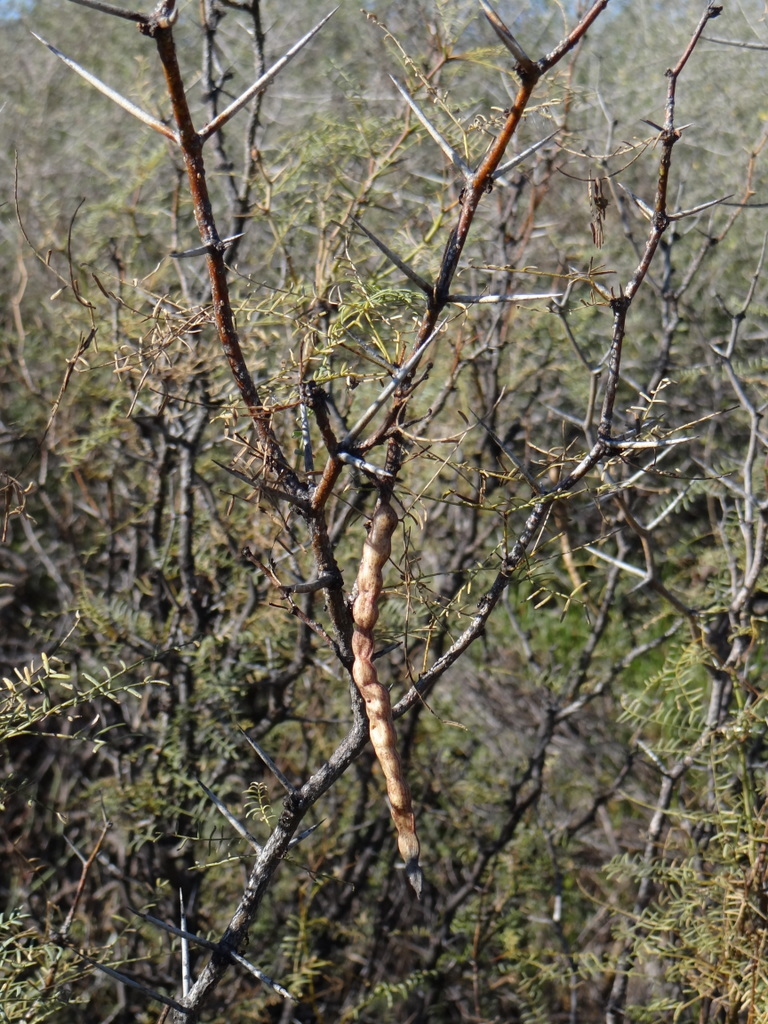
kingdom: Plantae
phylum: Tracheophyta
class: Magnoliopsida
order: Fabales
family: Fabaceae
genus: Prosopis
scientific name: Prosopis flexuosa
